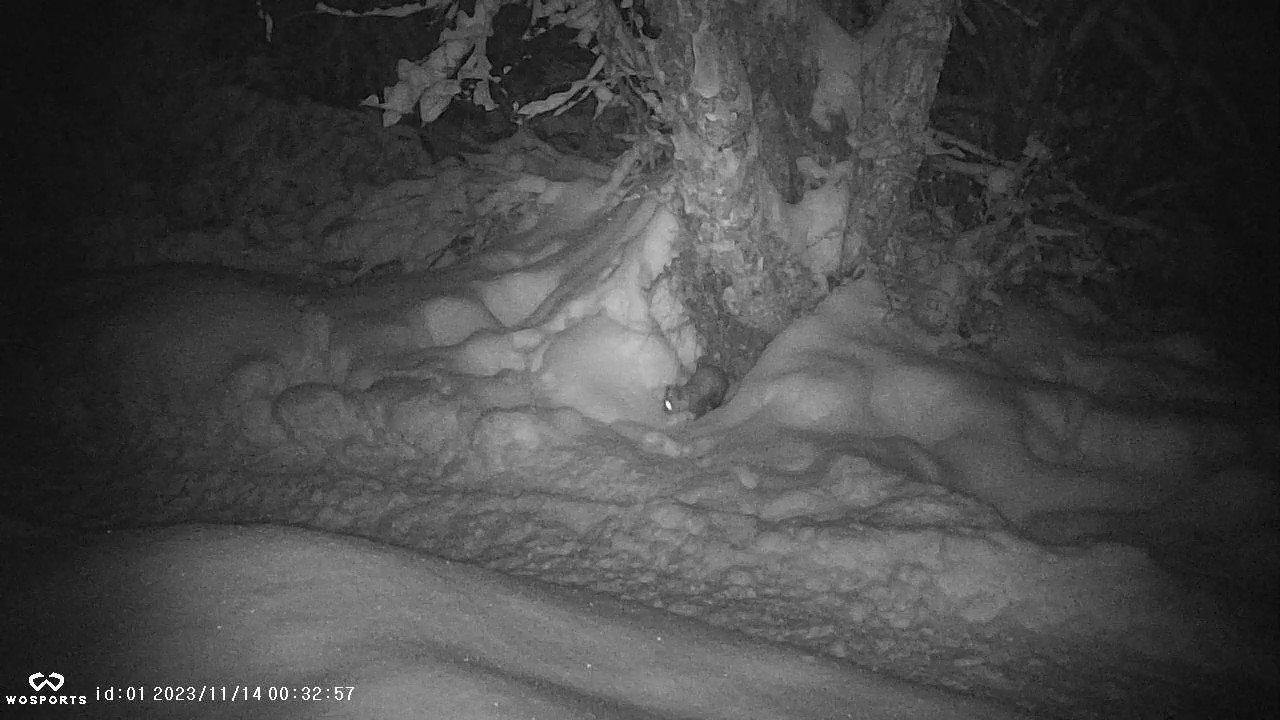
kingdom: Animalia
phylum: Chordata
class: Mammalia
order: Carnivora
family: Mustelidae
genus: Martes
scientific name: Martes americana
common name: American marten
